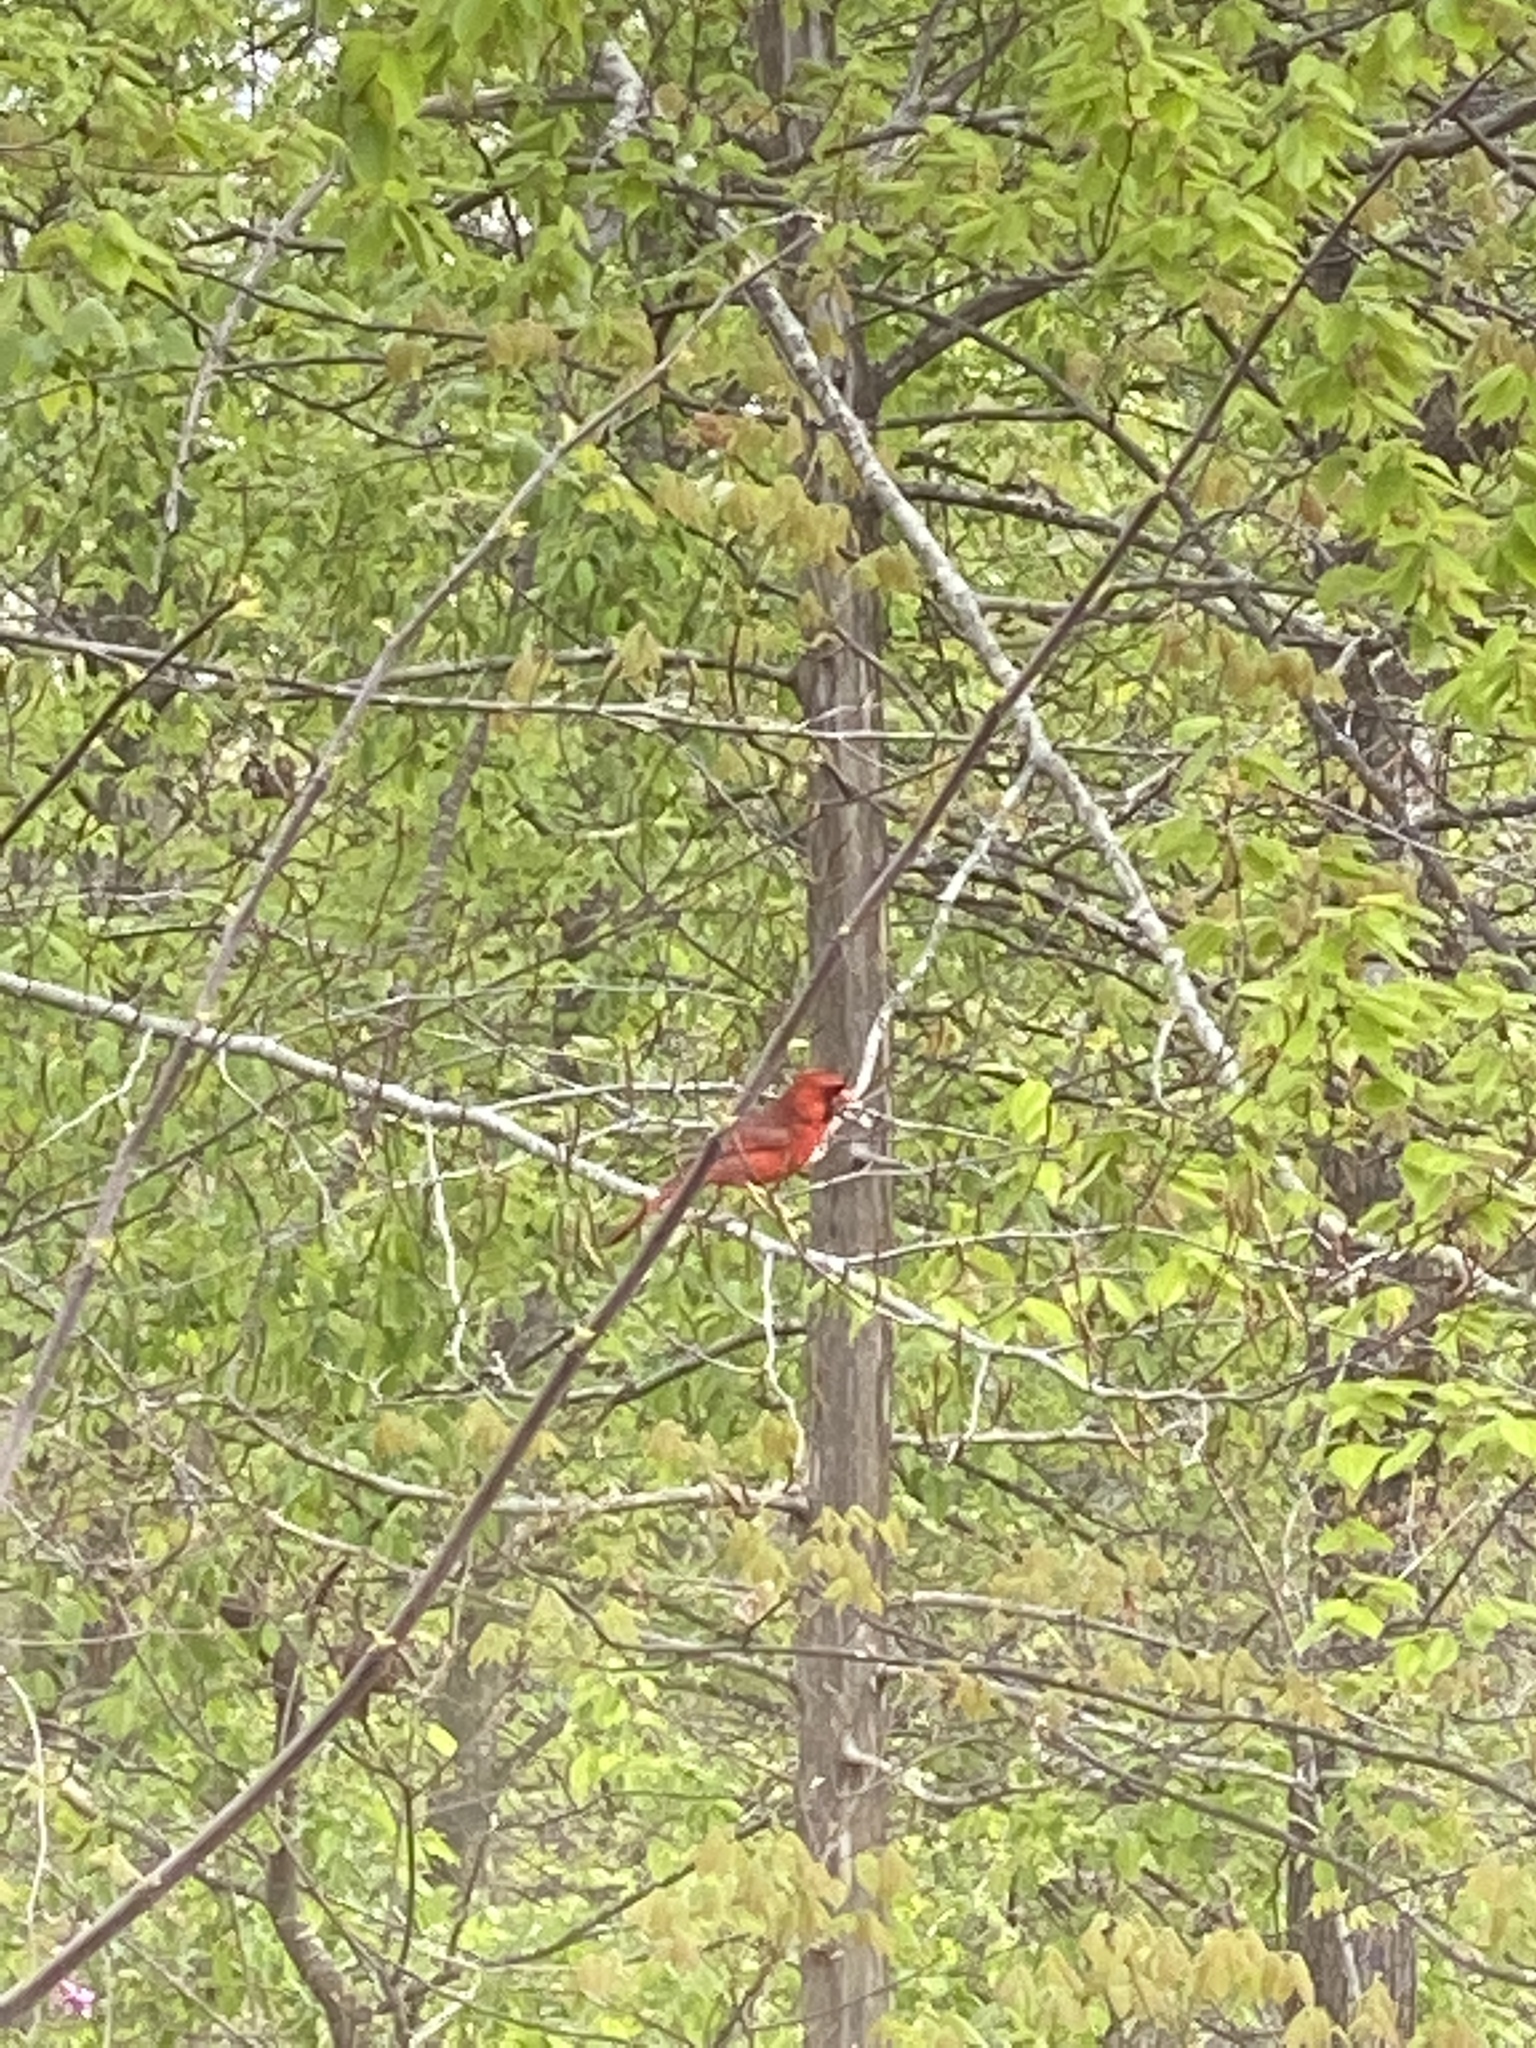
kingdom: Animalia
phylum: Chordata
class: Aves
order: Passeriformes
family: Cardinalidae
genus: Cardinalis
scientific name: Cardinalis cardinalis
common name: Northern cardinal
